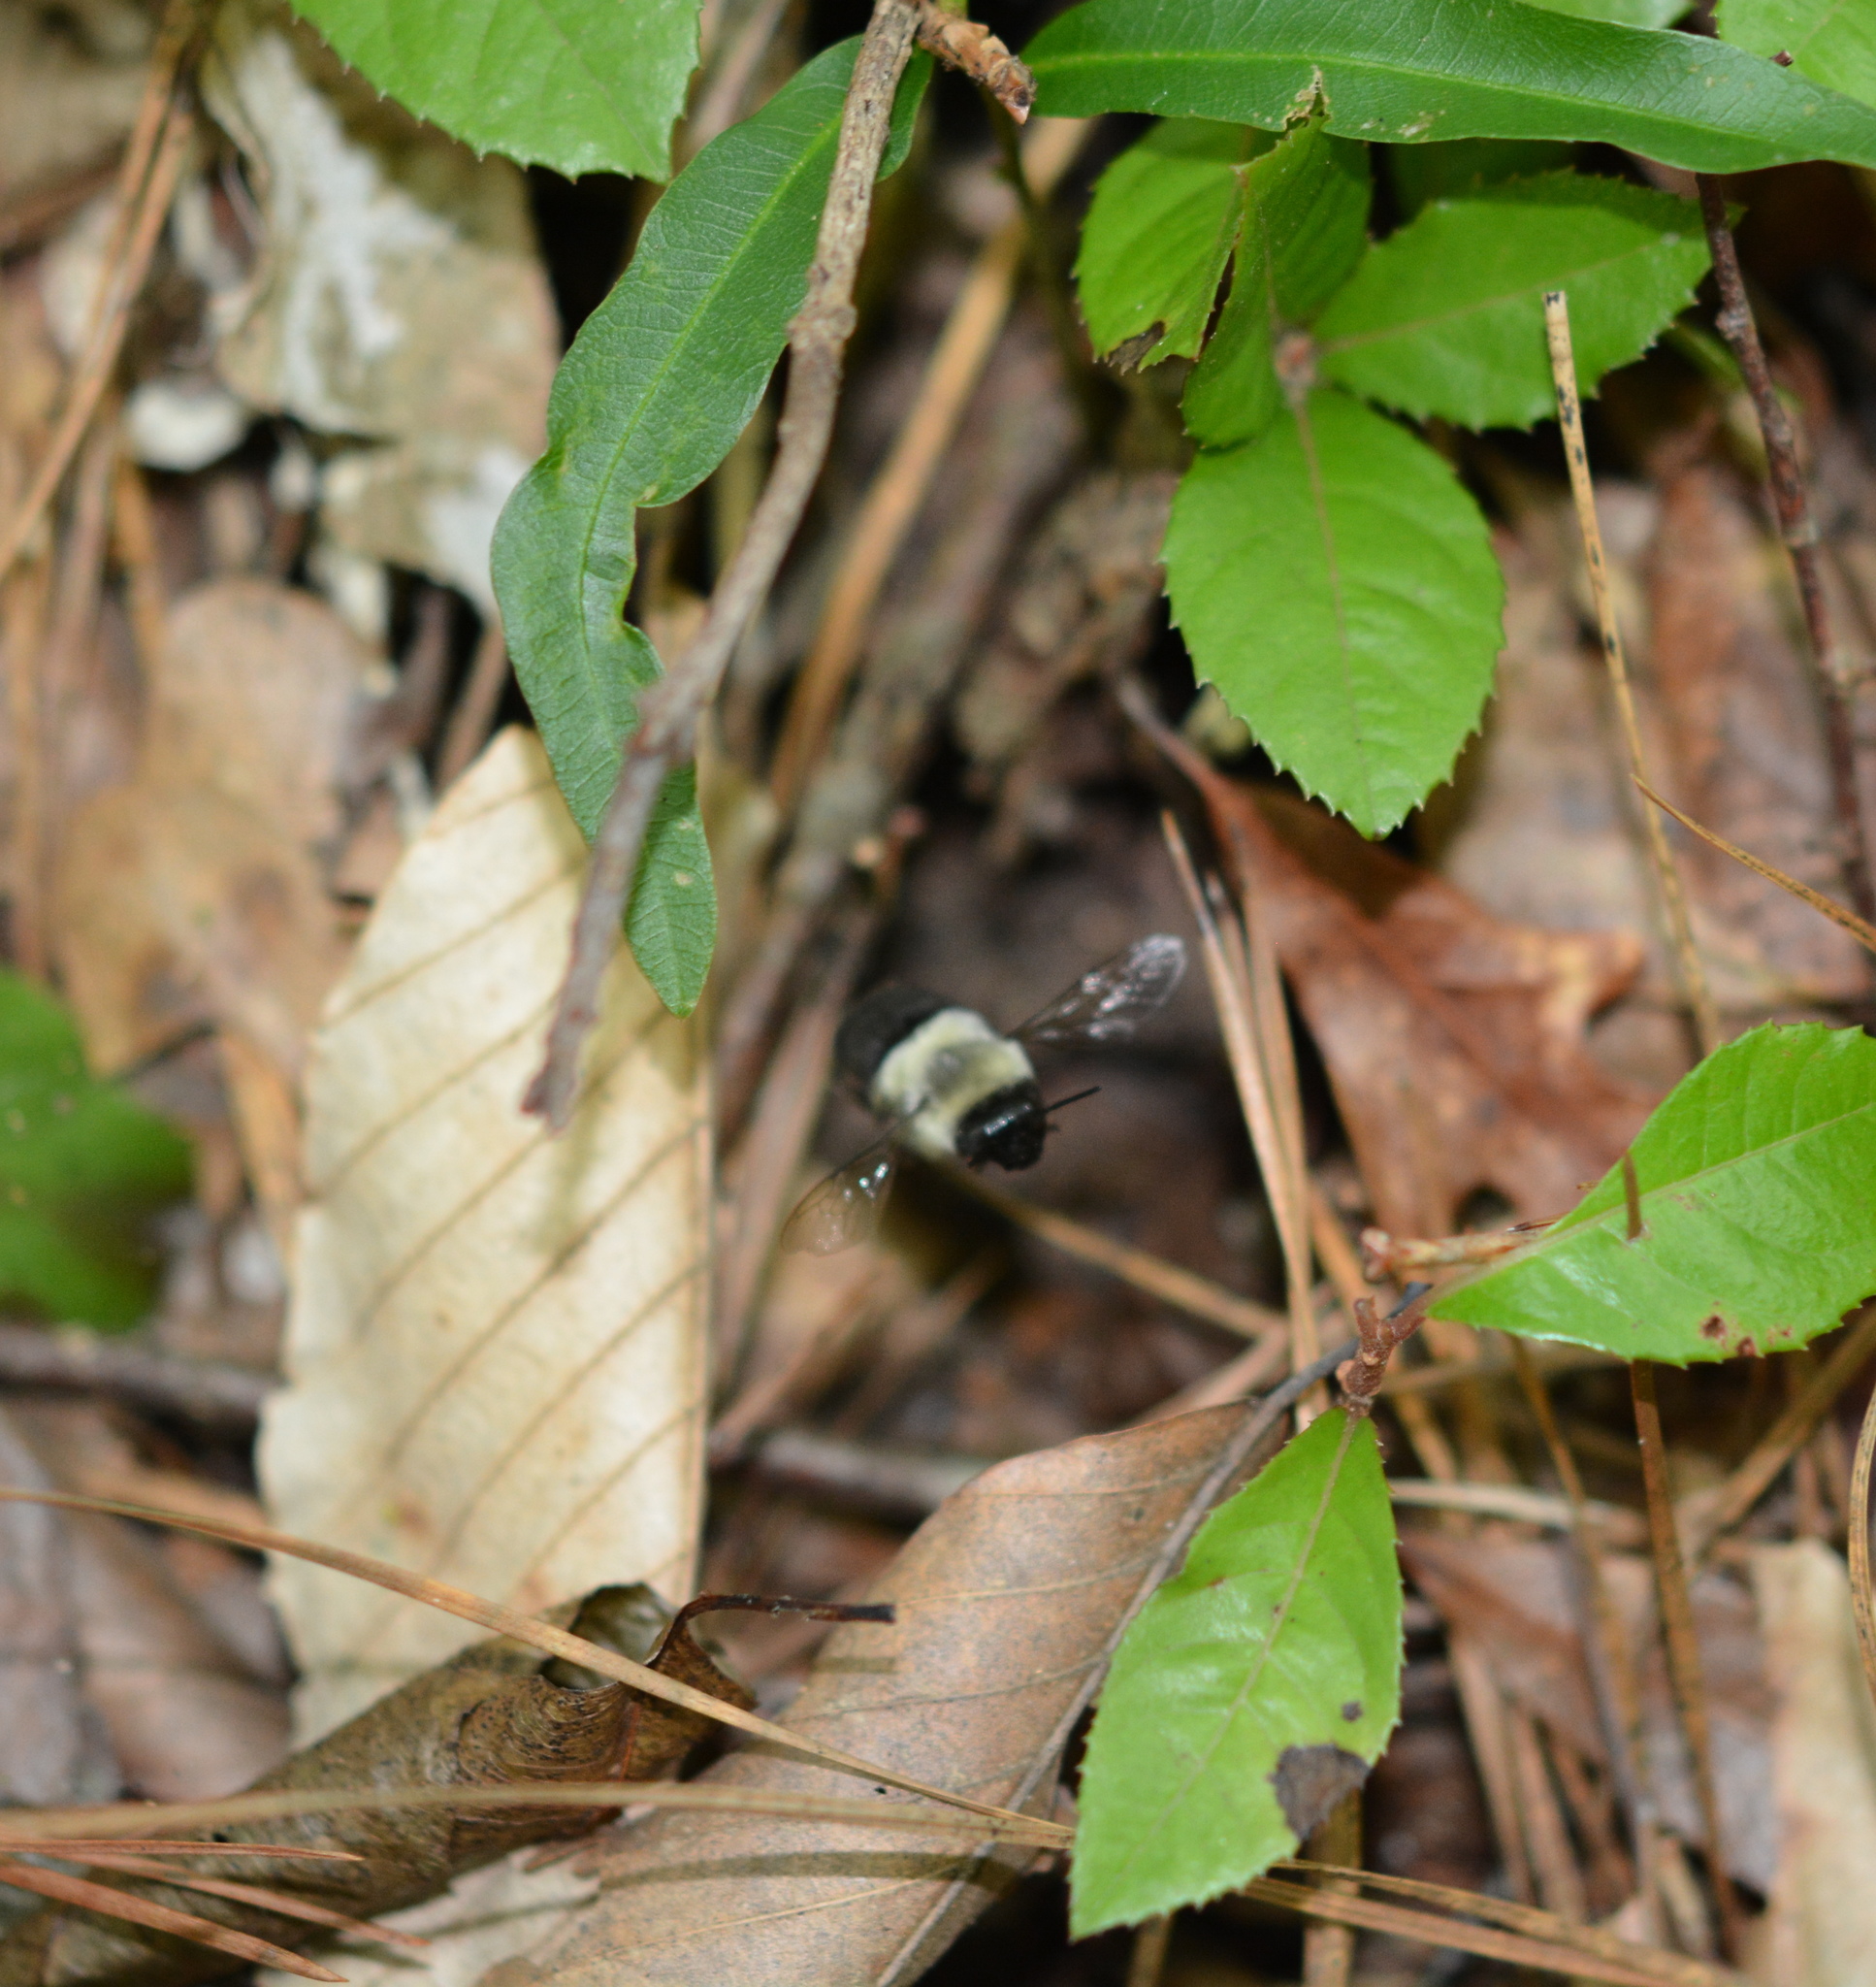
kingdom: Animalia
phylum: Arthropoda
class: Insecta
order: Hymenoptera
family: Apidae
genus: Bombus
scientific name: Bombus impatiens
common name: Common eastern bumble bee
